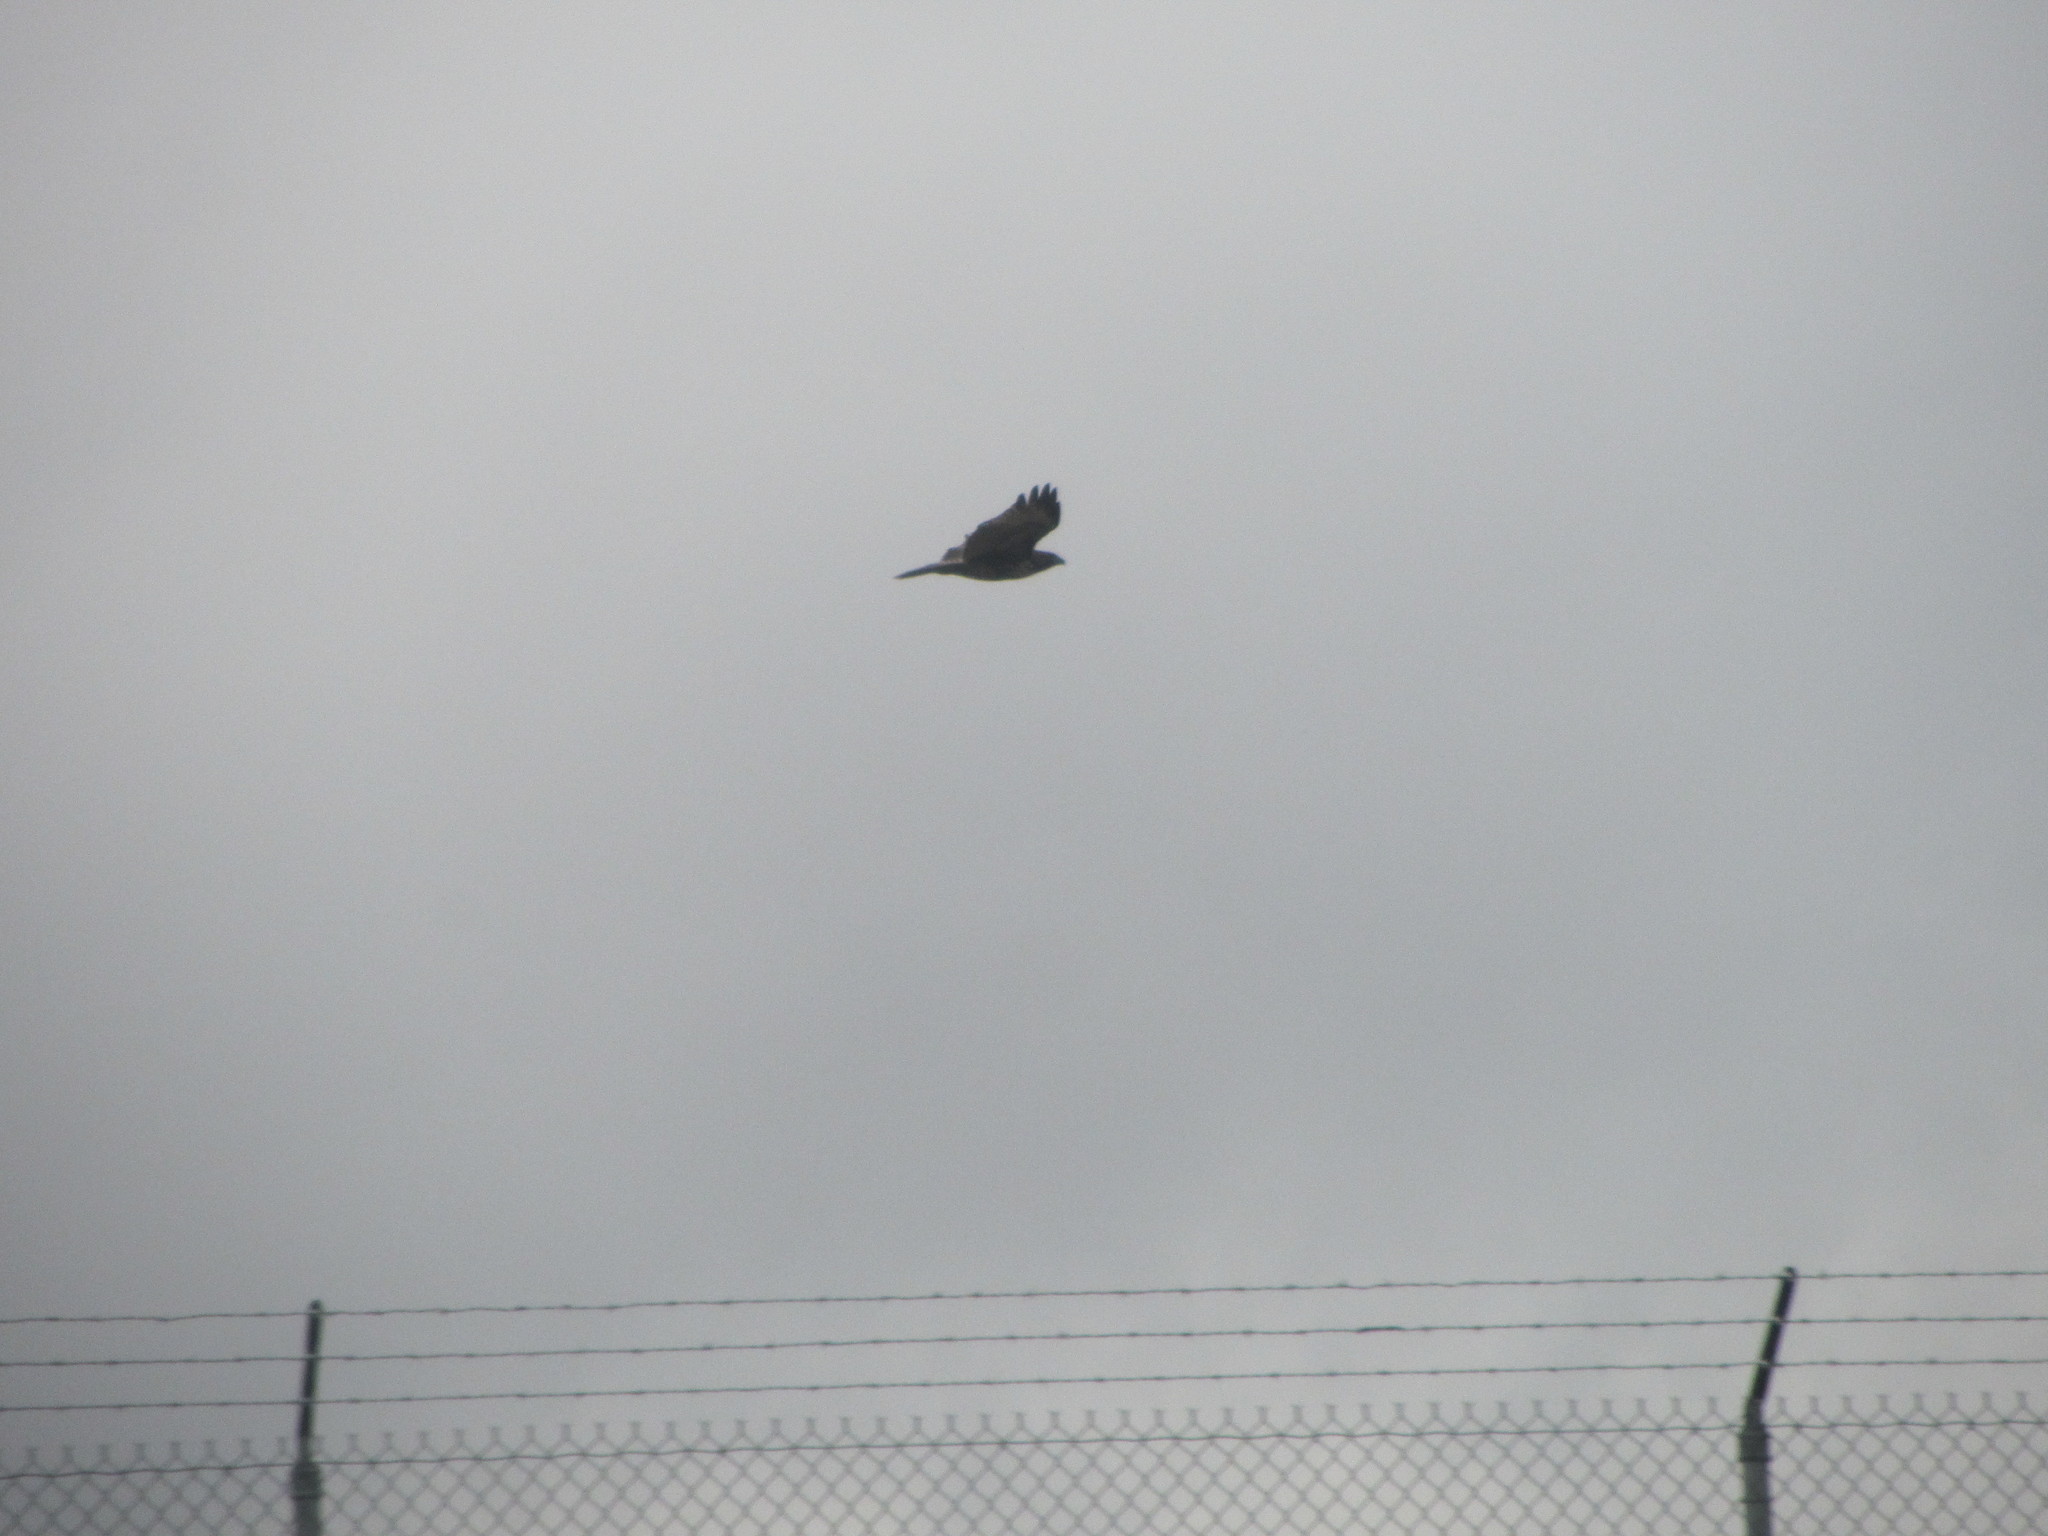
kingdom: Animalia
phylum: Chordata
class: Aves
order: Accipitriformes
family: Accipitridae
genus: Buteo
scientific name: Buteo jamaicensis
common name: Red-tailed hawk
